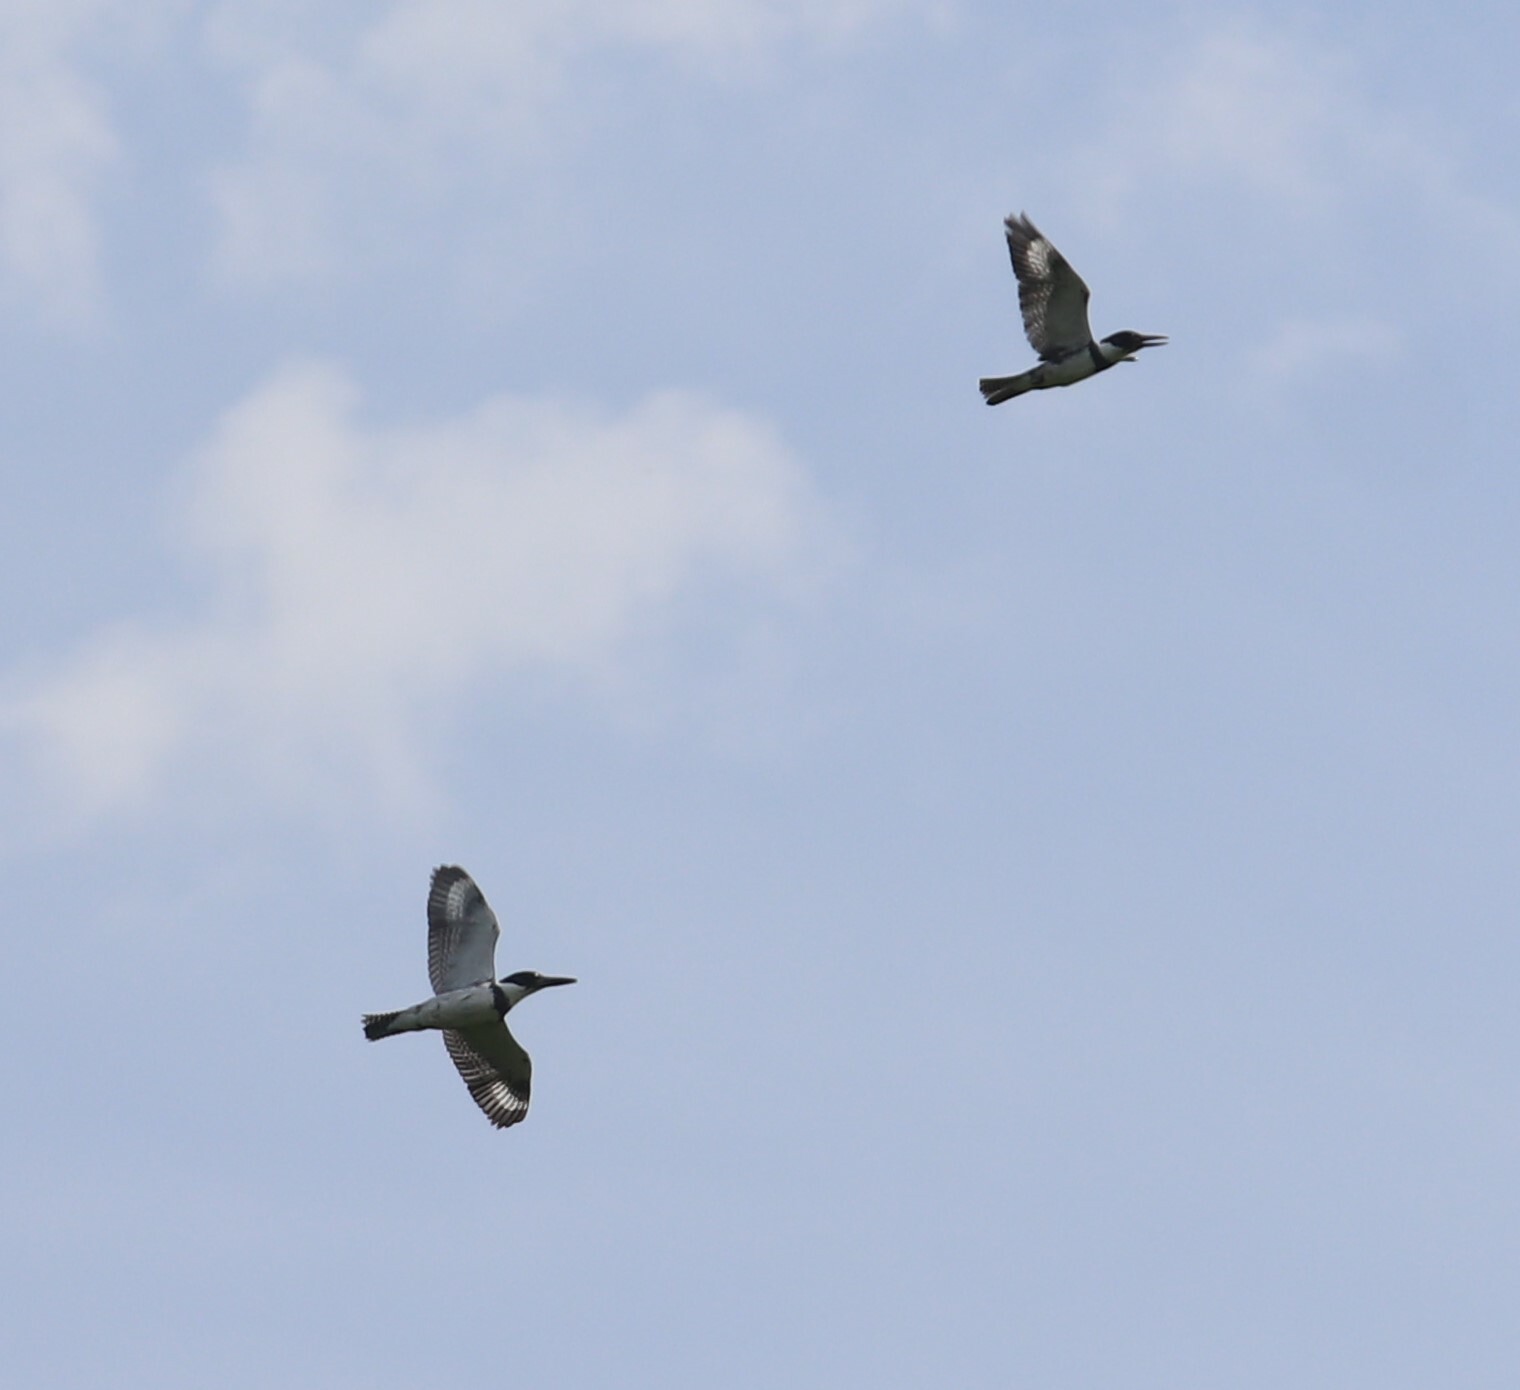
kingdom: Animalia
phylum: Chordata
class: Aves
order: Coraciiformes
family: Alcedinidae
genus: Megaceryle
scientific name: Megaceryle alcyon
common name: Belted kingfisher
